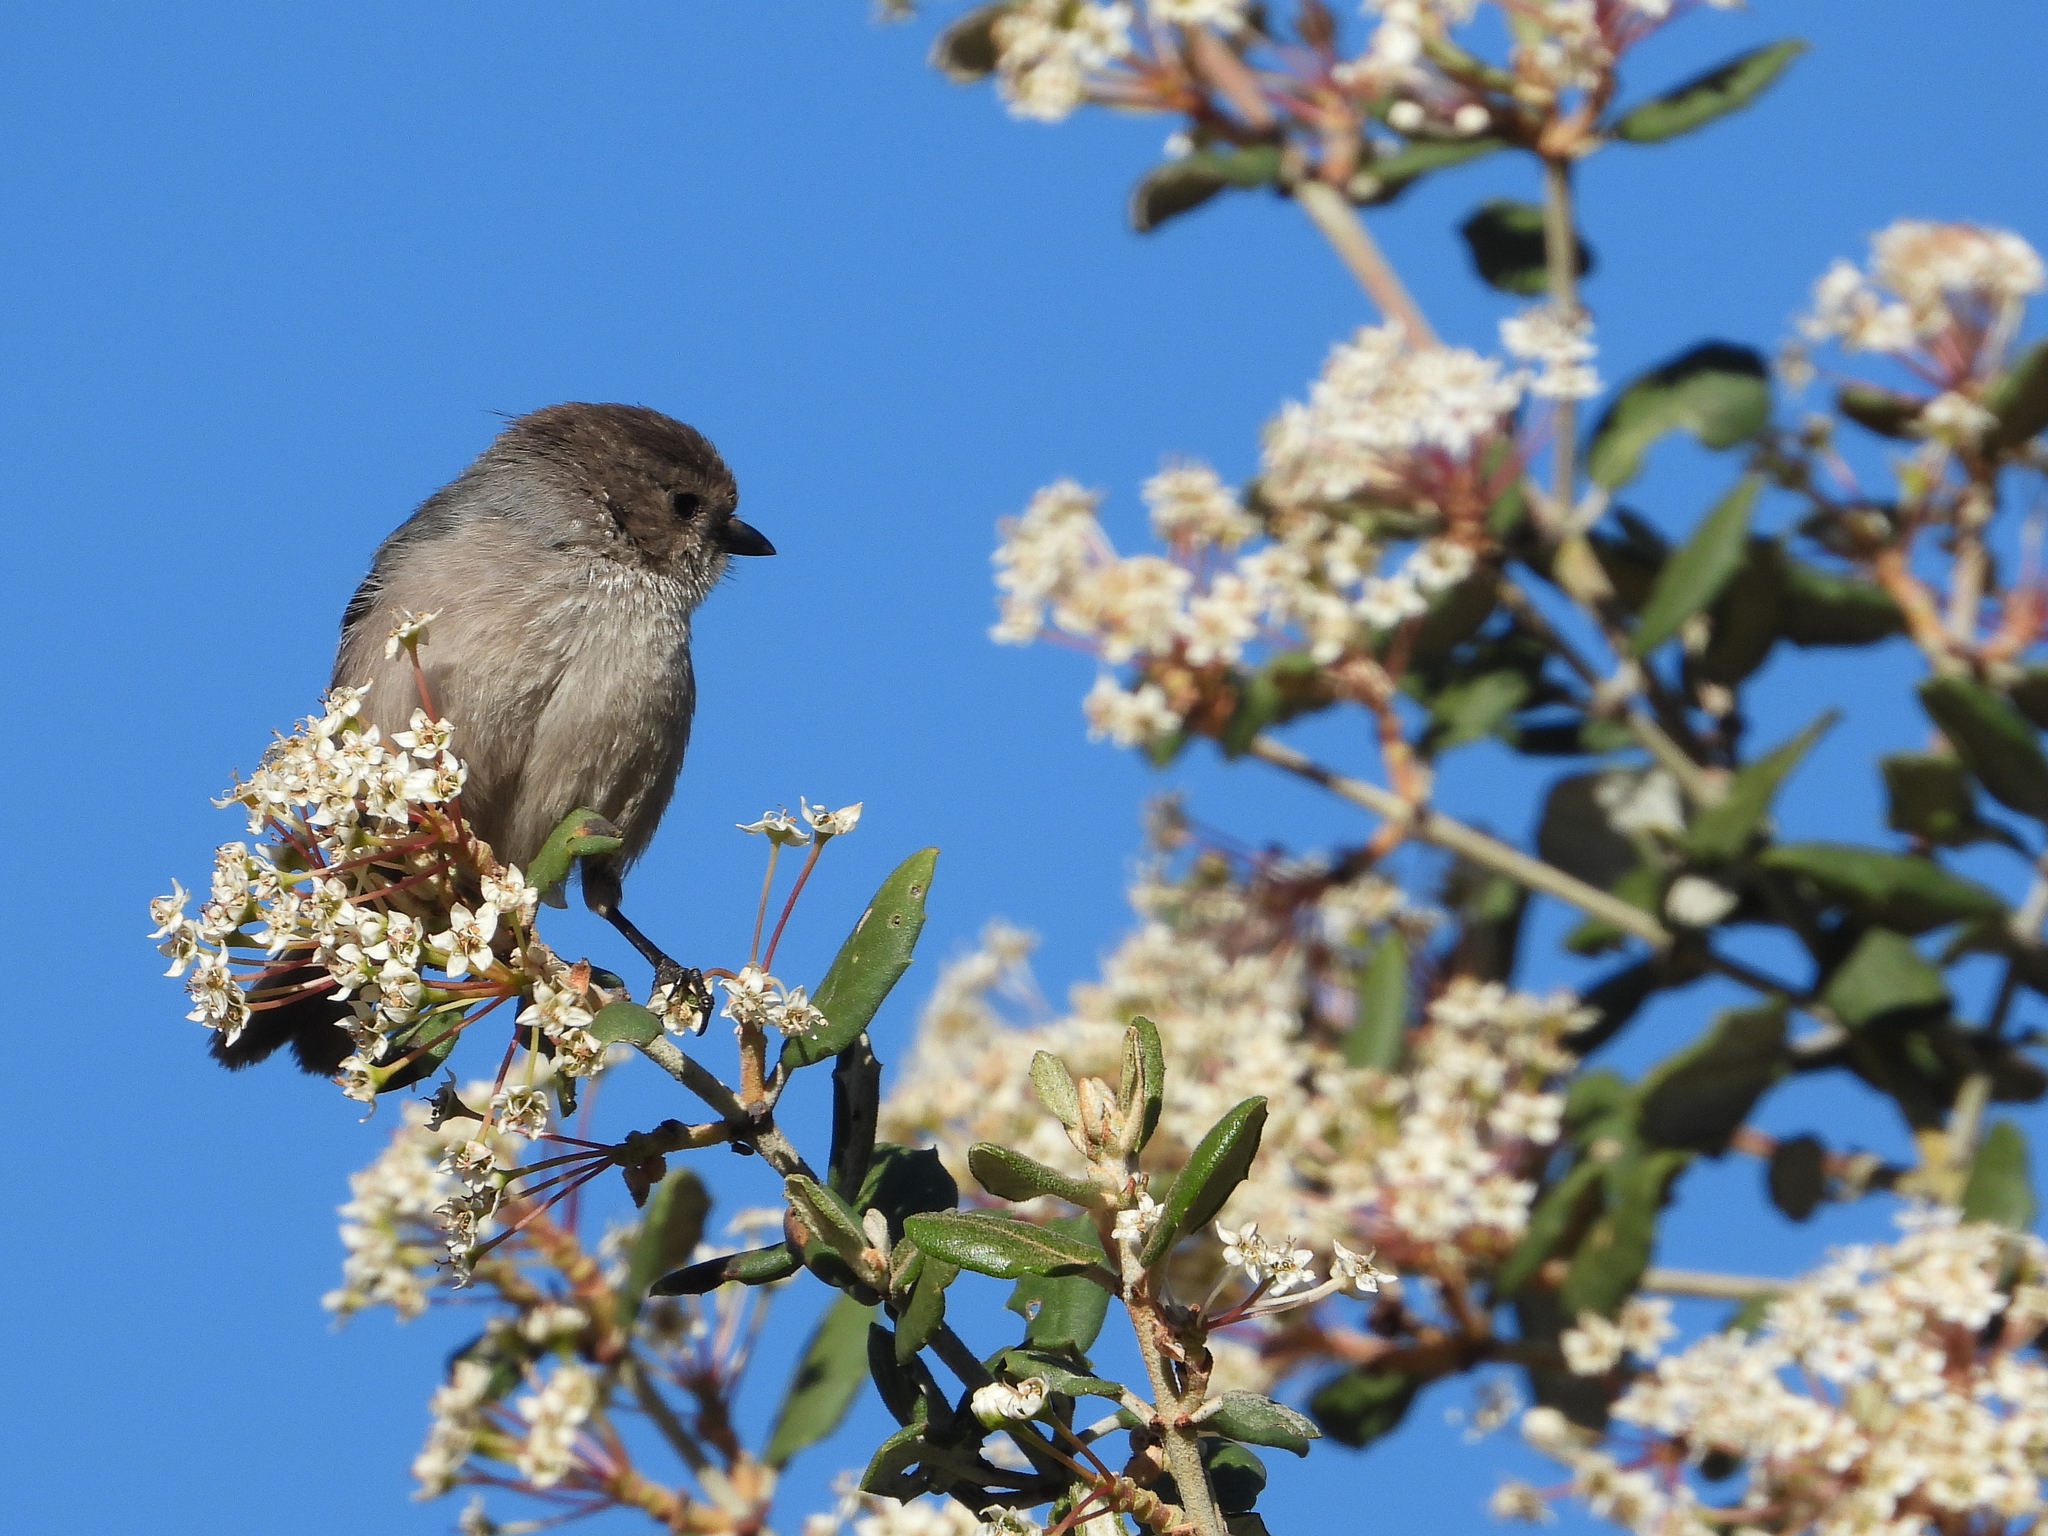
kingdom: Animalia
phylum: Chordata
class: Aves
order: Passeriformes
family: Aegithalidae
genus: Psaltriparus
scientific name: Psaltriparus minimus
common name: American bushtit
